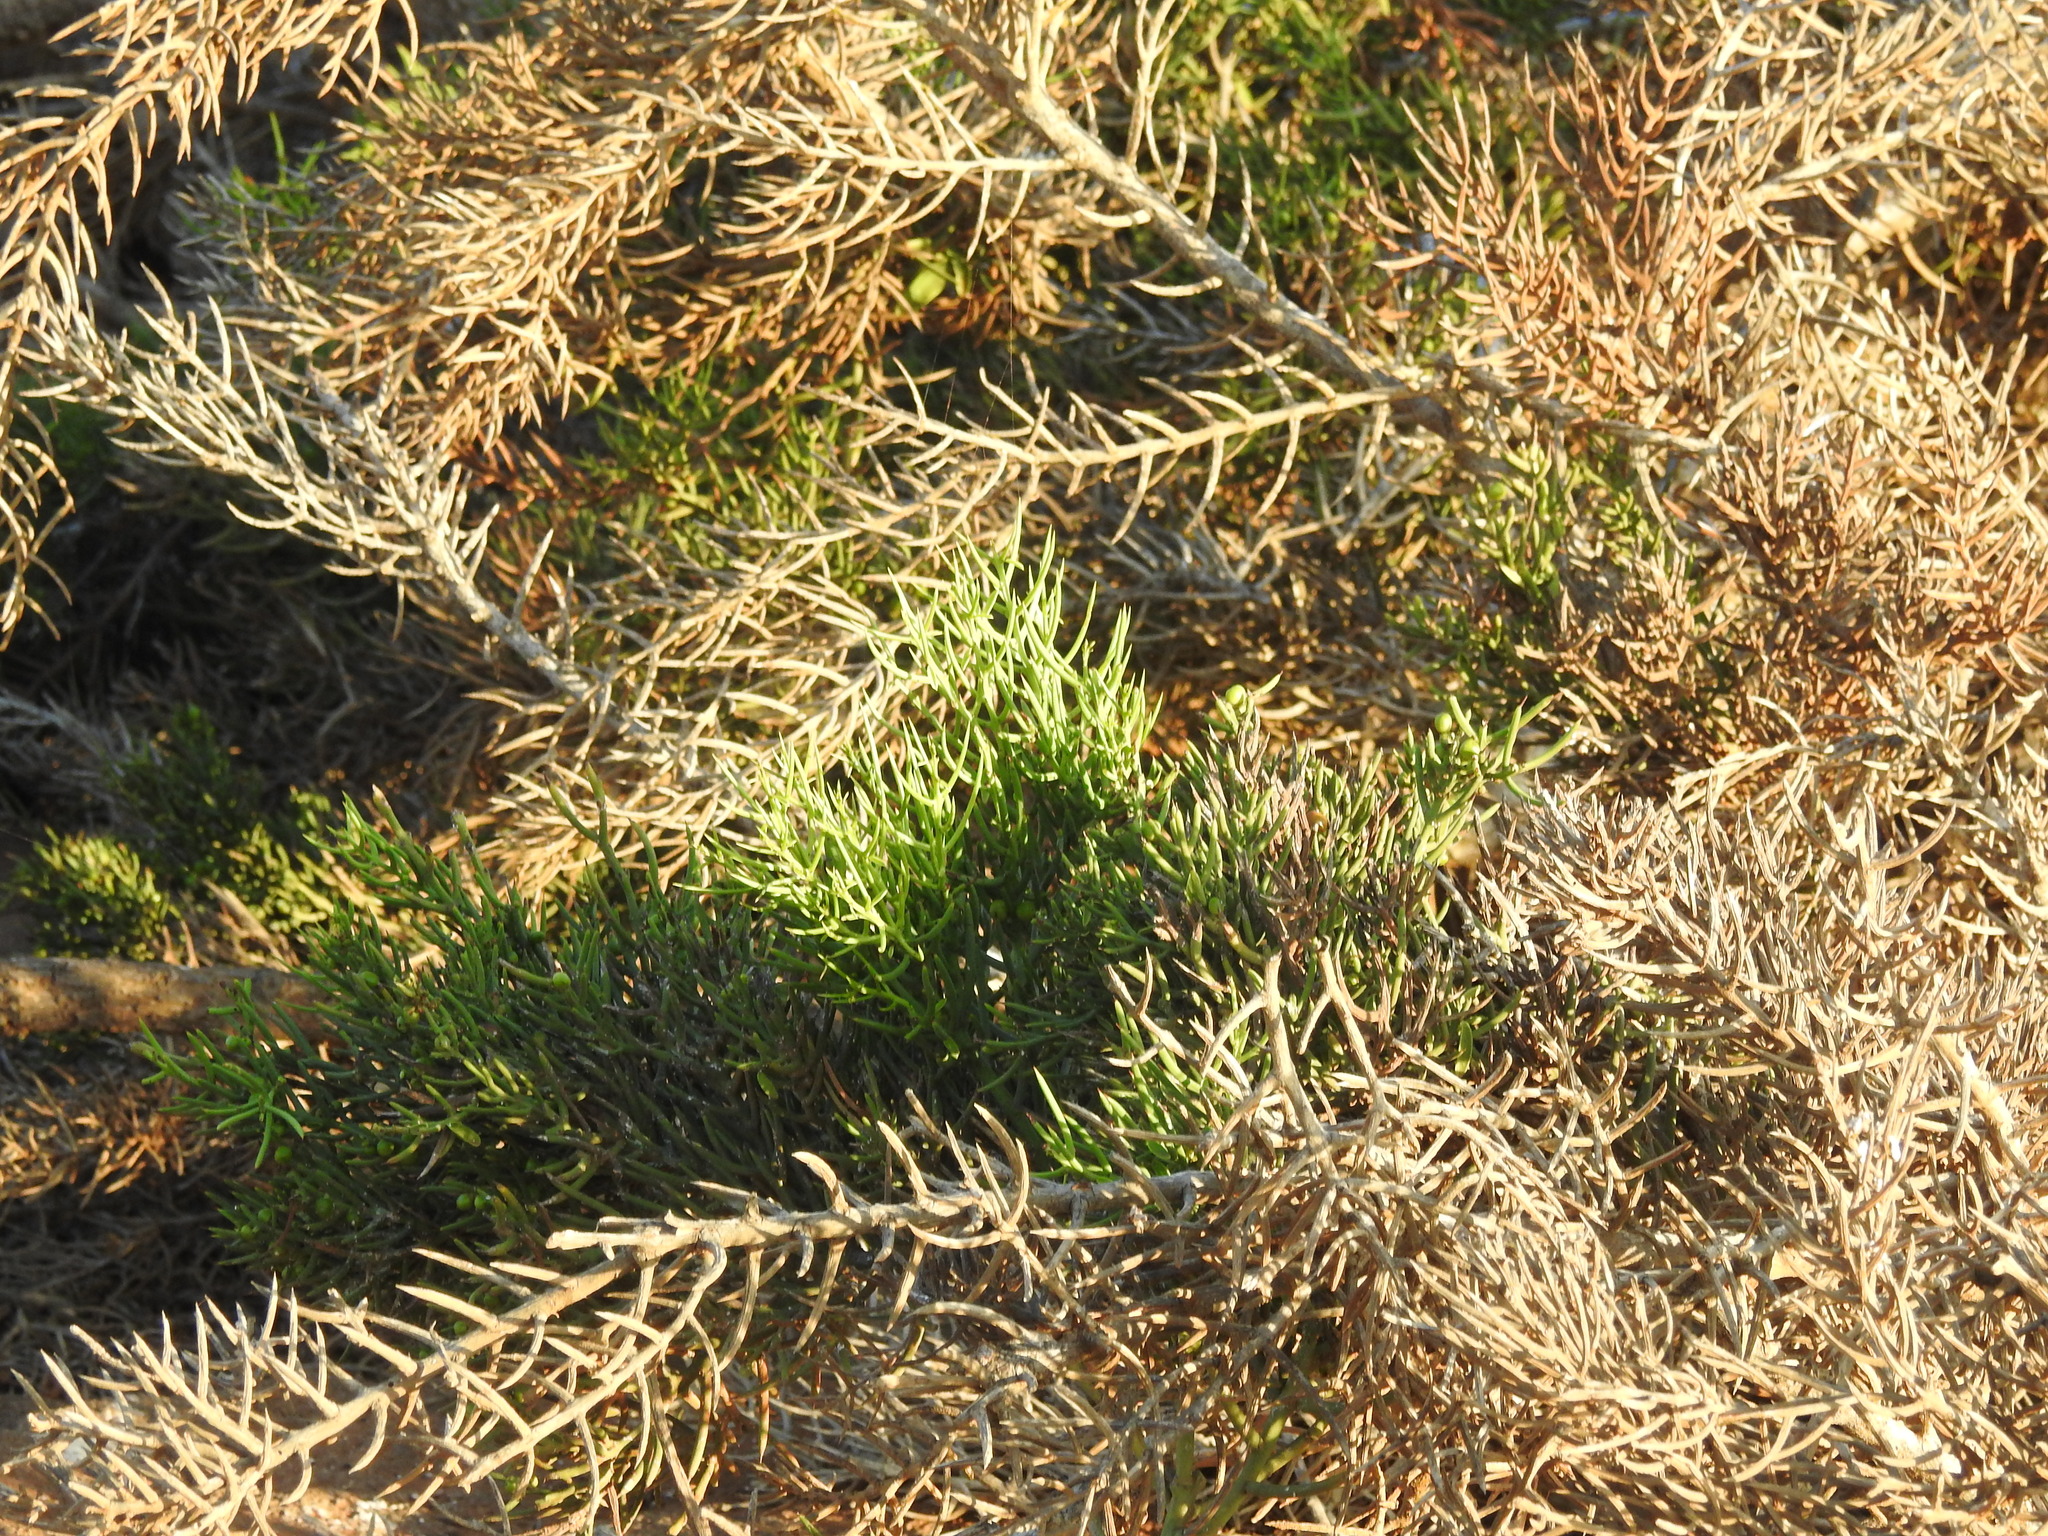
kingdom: Plantae
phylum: Tracheophyta
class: Magnoliopsida
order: Rosales
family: Rhamnaceae
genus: Scutia
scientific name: Scutia spicata
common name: Spiny bush
